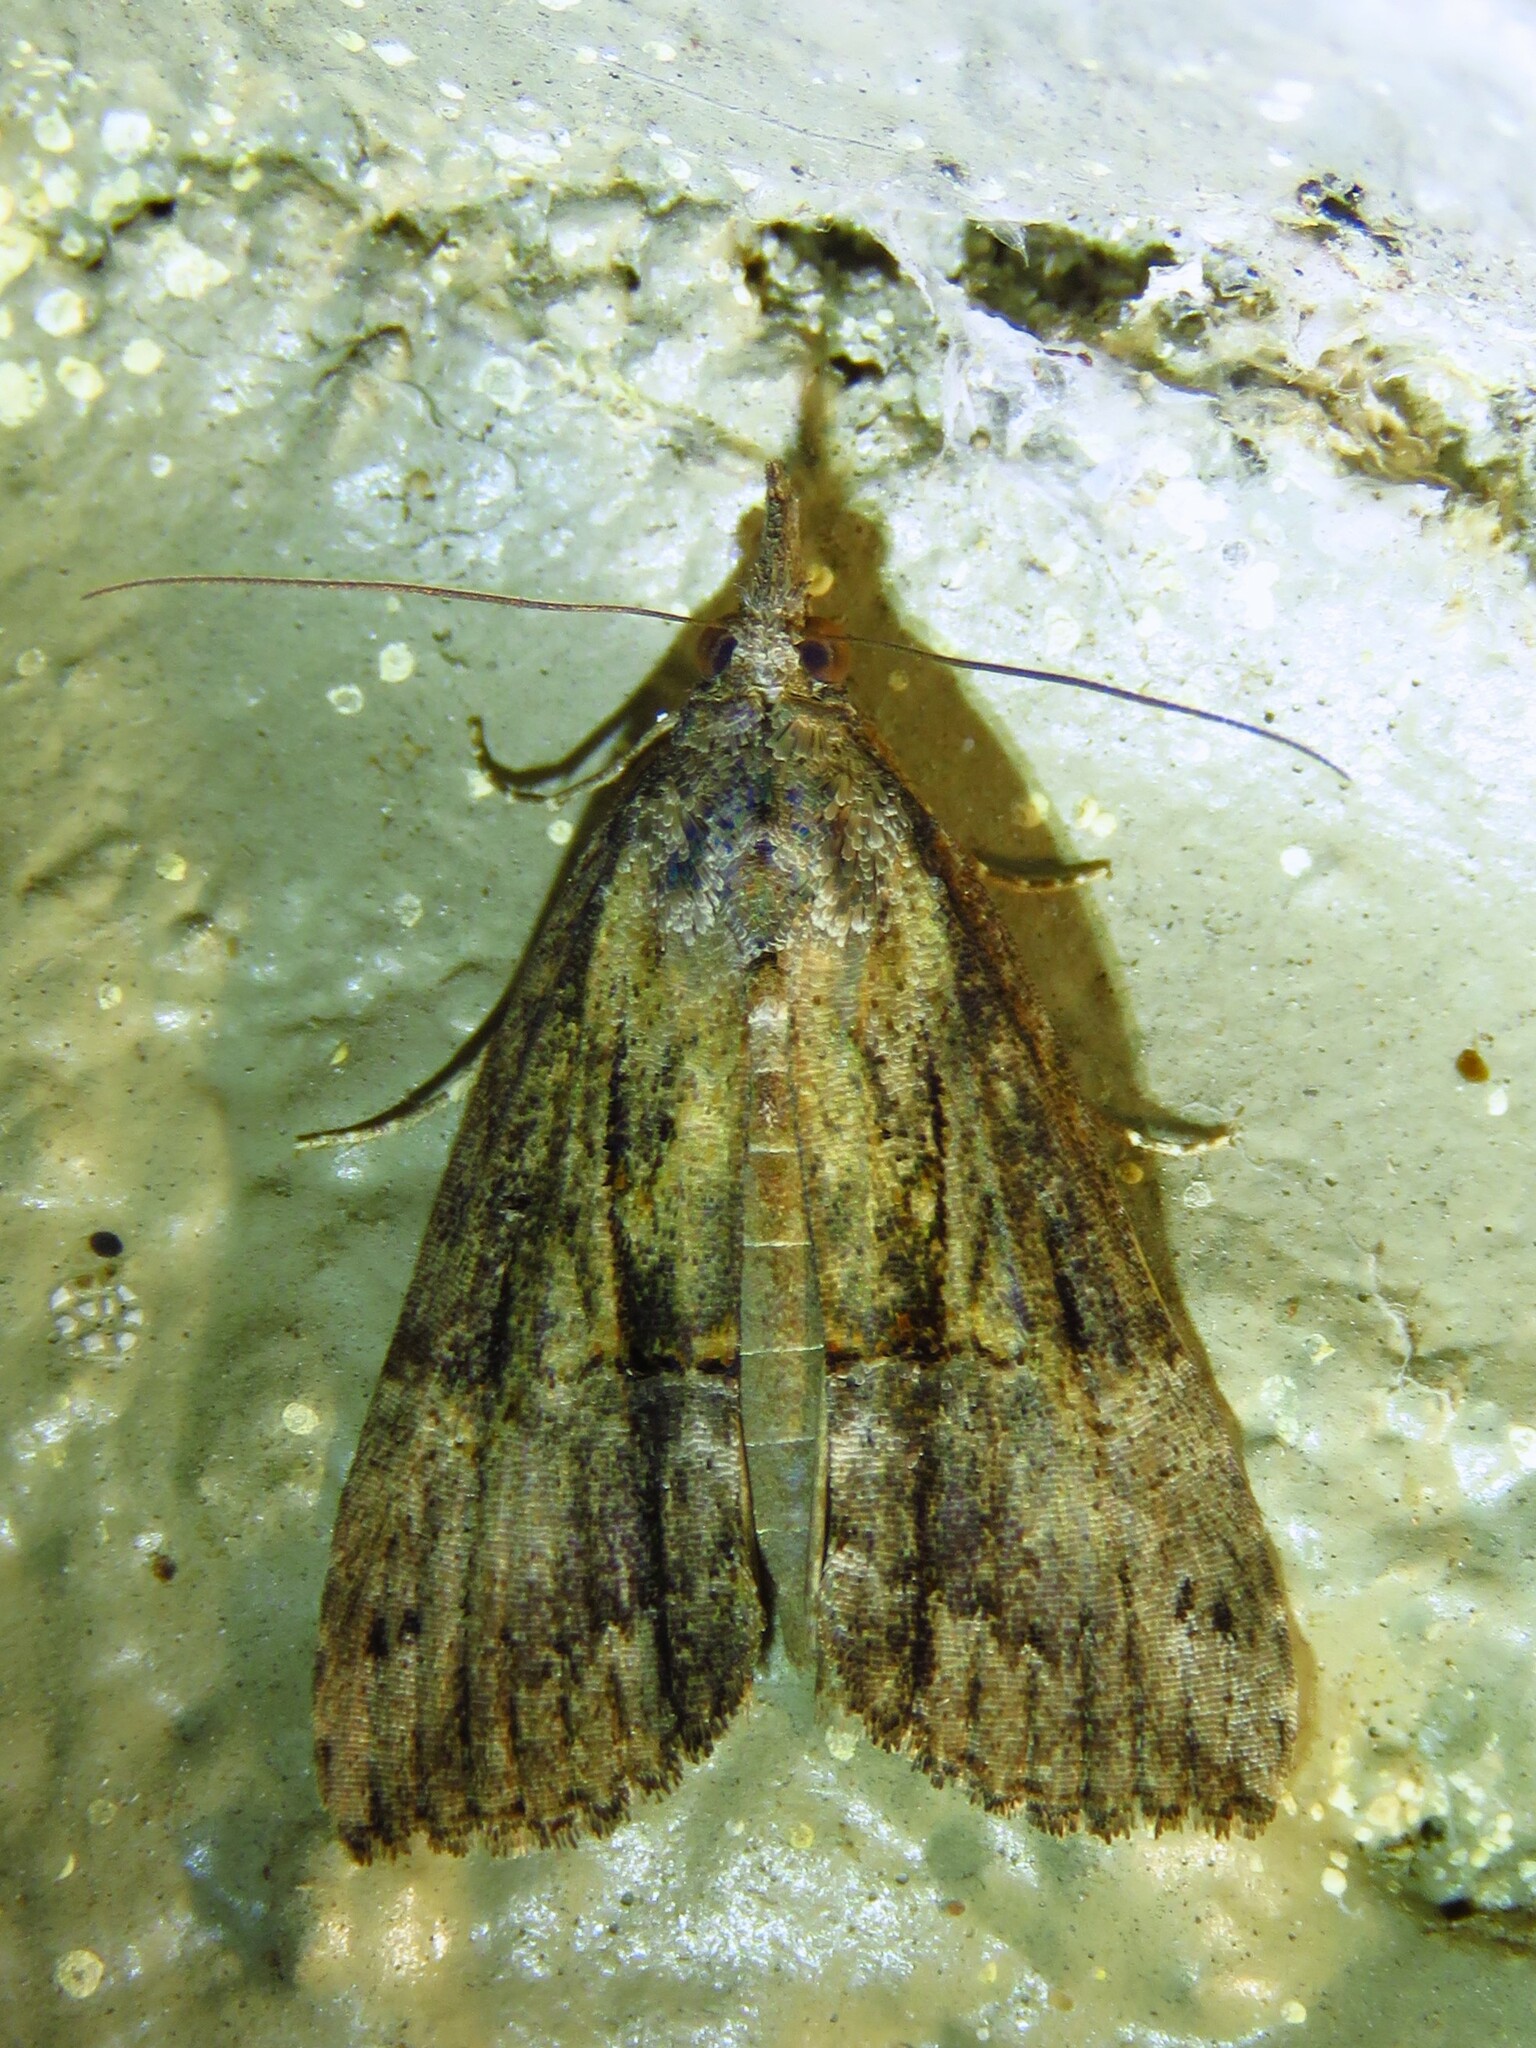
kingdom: Animalia
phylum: Arthropoda
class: Insecta
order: Lepidoptera
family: Erebidae
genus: Hypena
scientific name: Hypena scabra
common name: Green cloverworm
